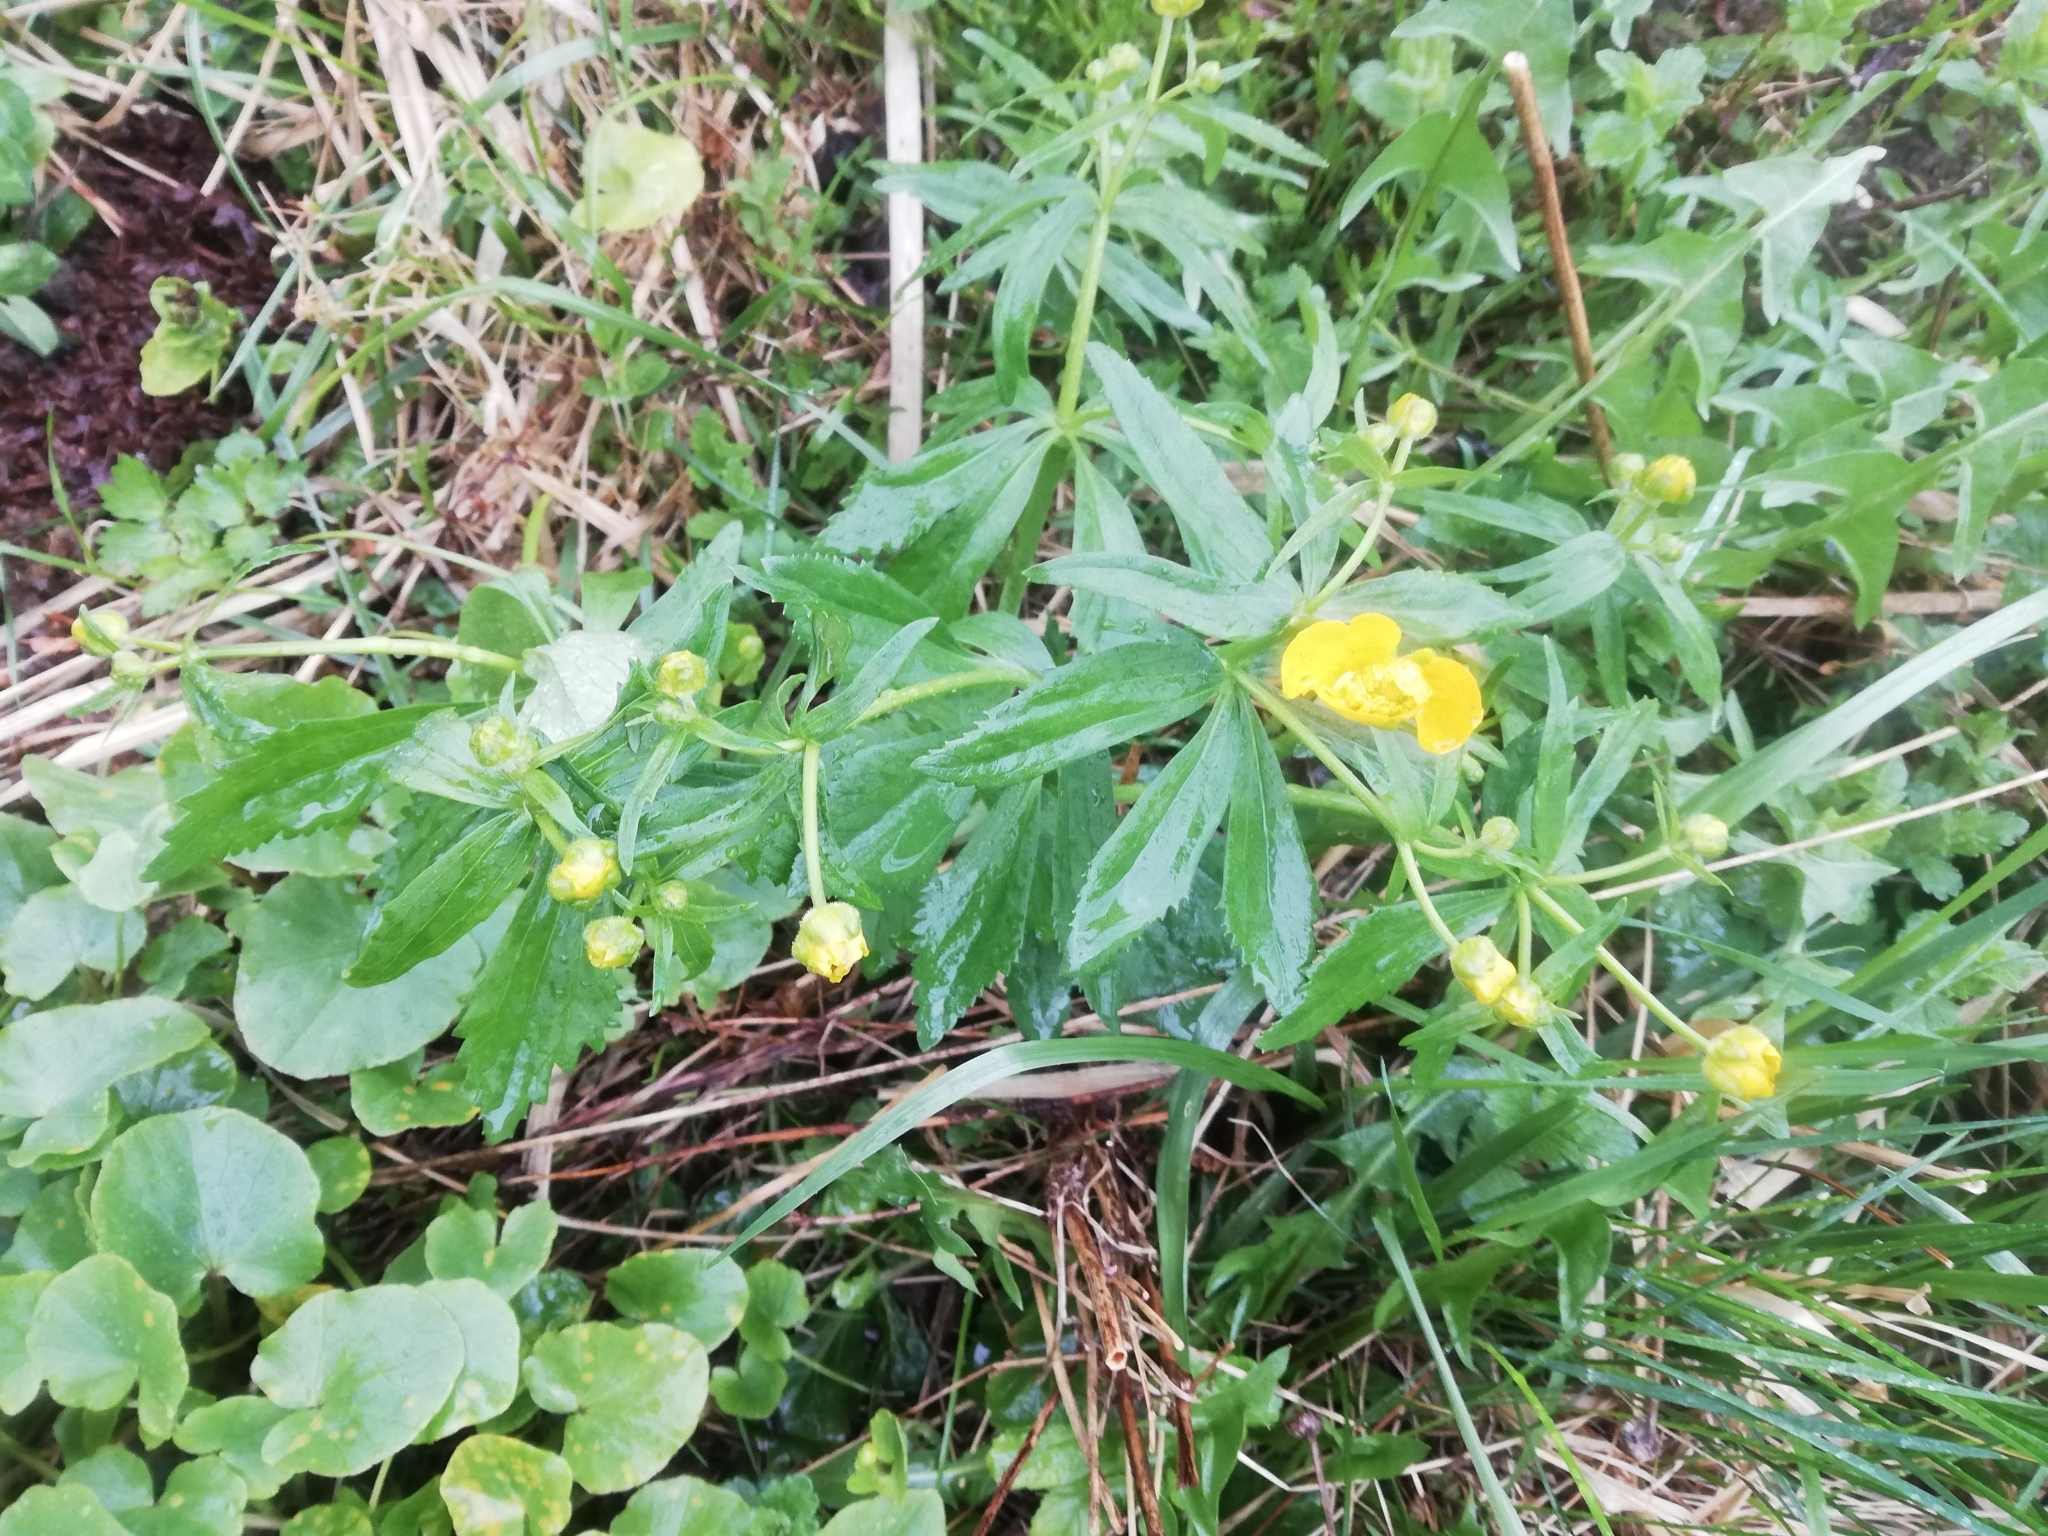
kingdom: Plantae
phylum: Tracheophyta
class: Magnoliopsida
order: Ranunculales
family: Ranunculaceae
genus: Ranunculus
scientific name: Ranunculus cassubicus
